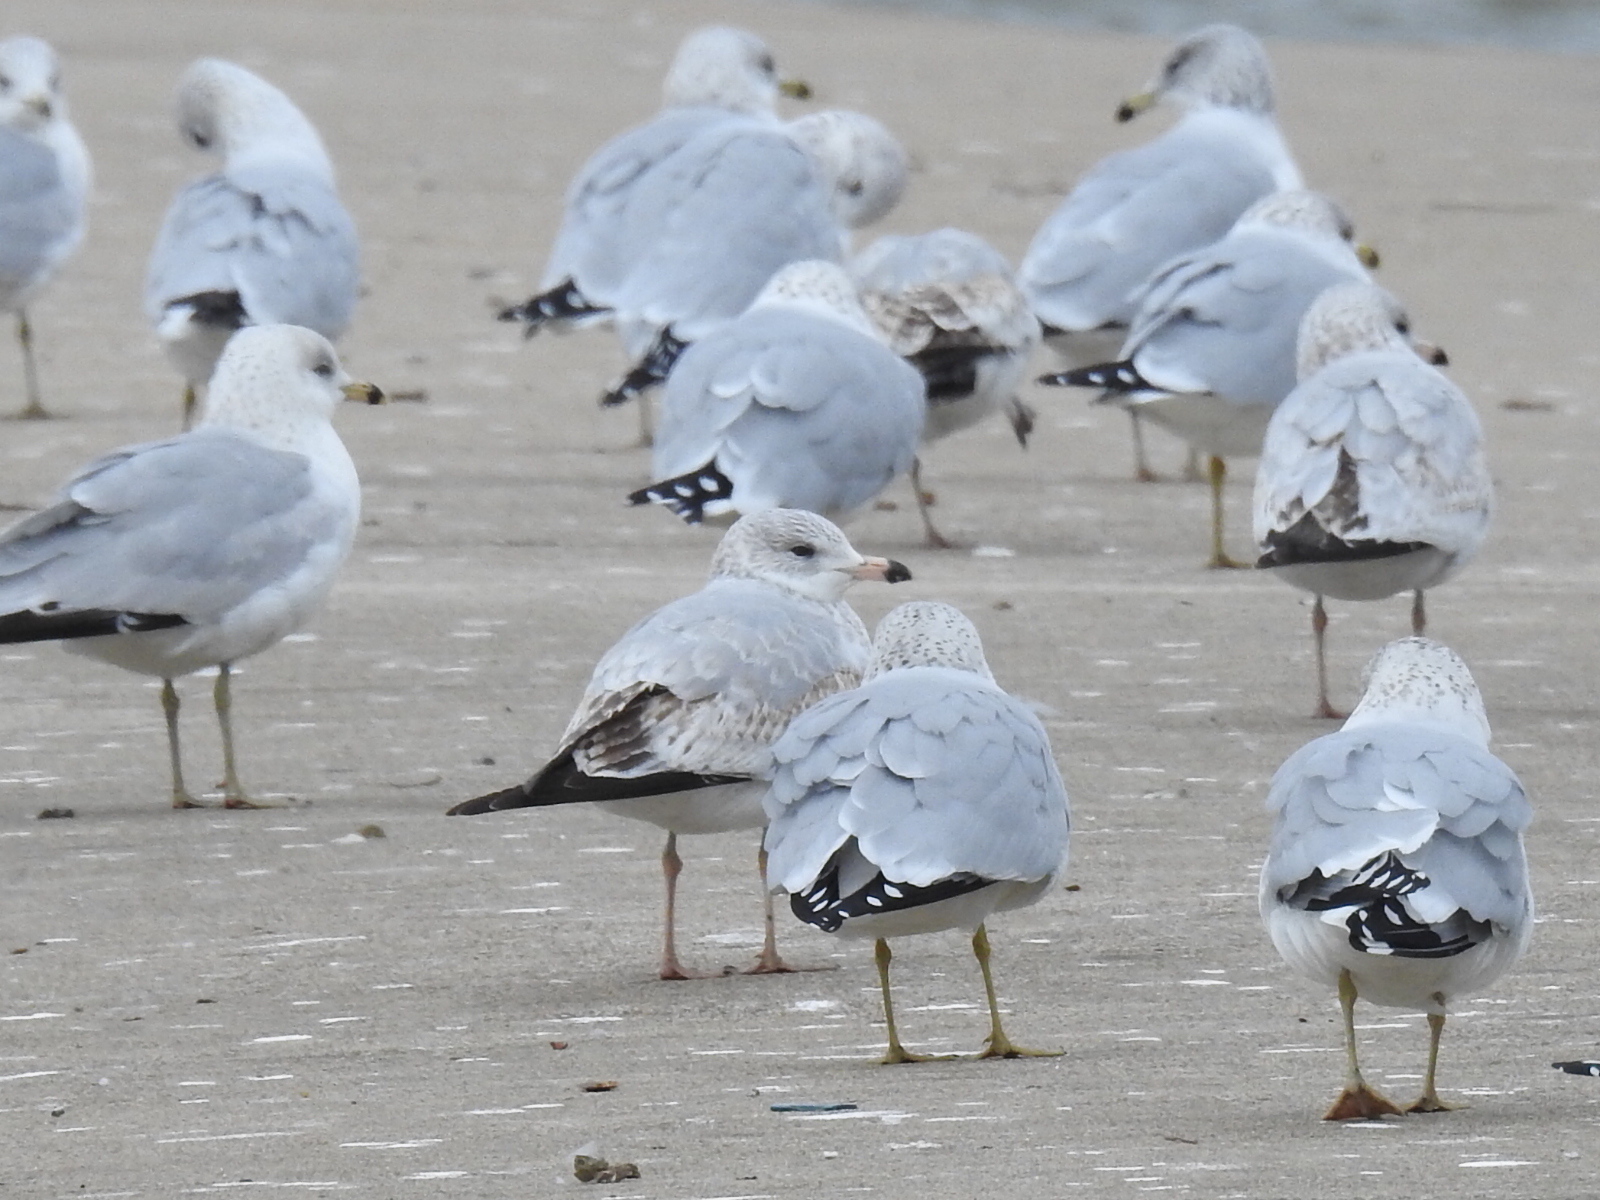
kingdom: Animalia
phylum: Chordata
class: Aves
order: Charadriiformes
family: Laridae
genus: Larus
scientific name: Larus delawarensis
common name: Ring-billed gull
